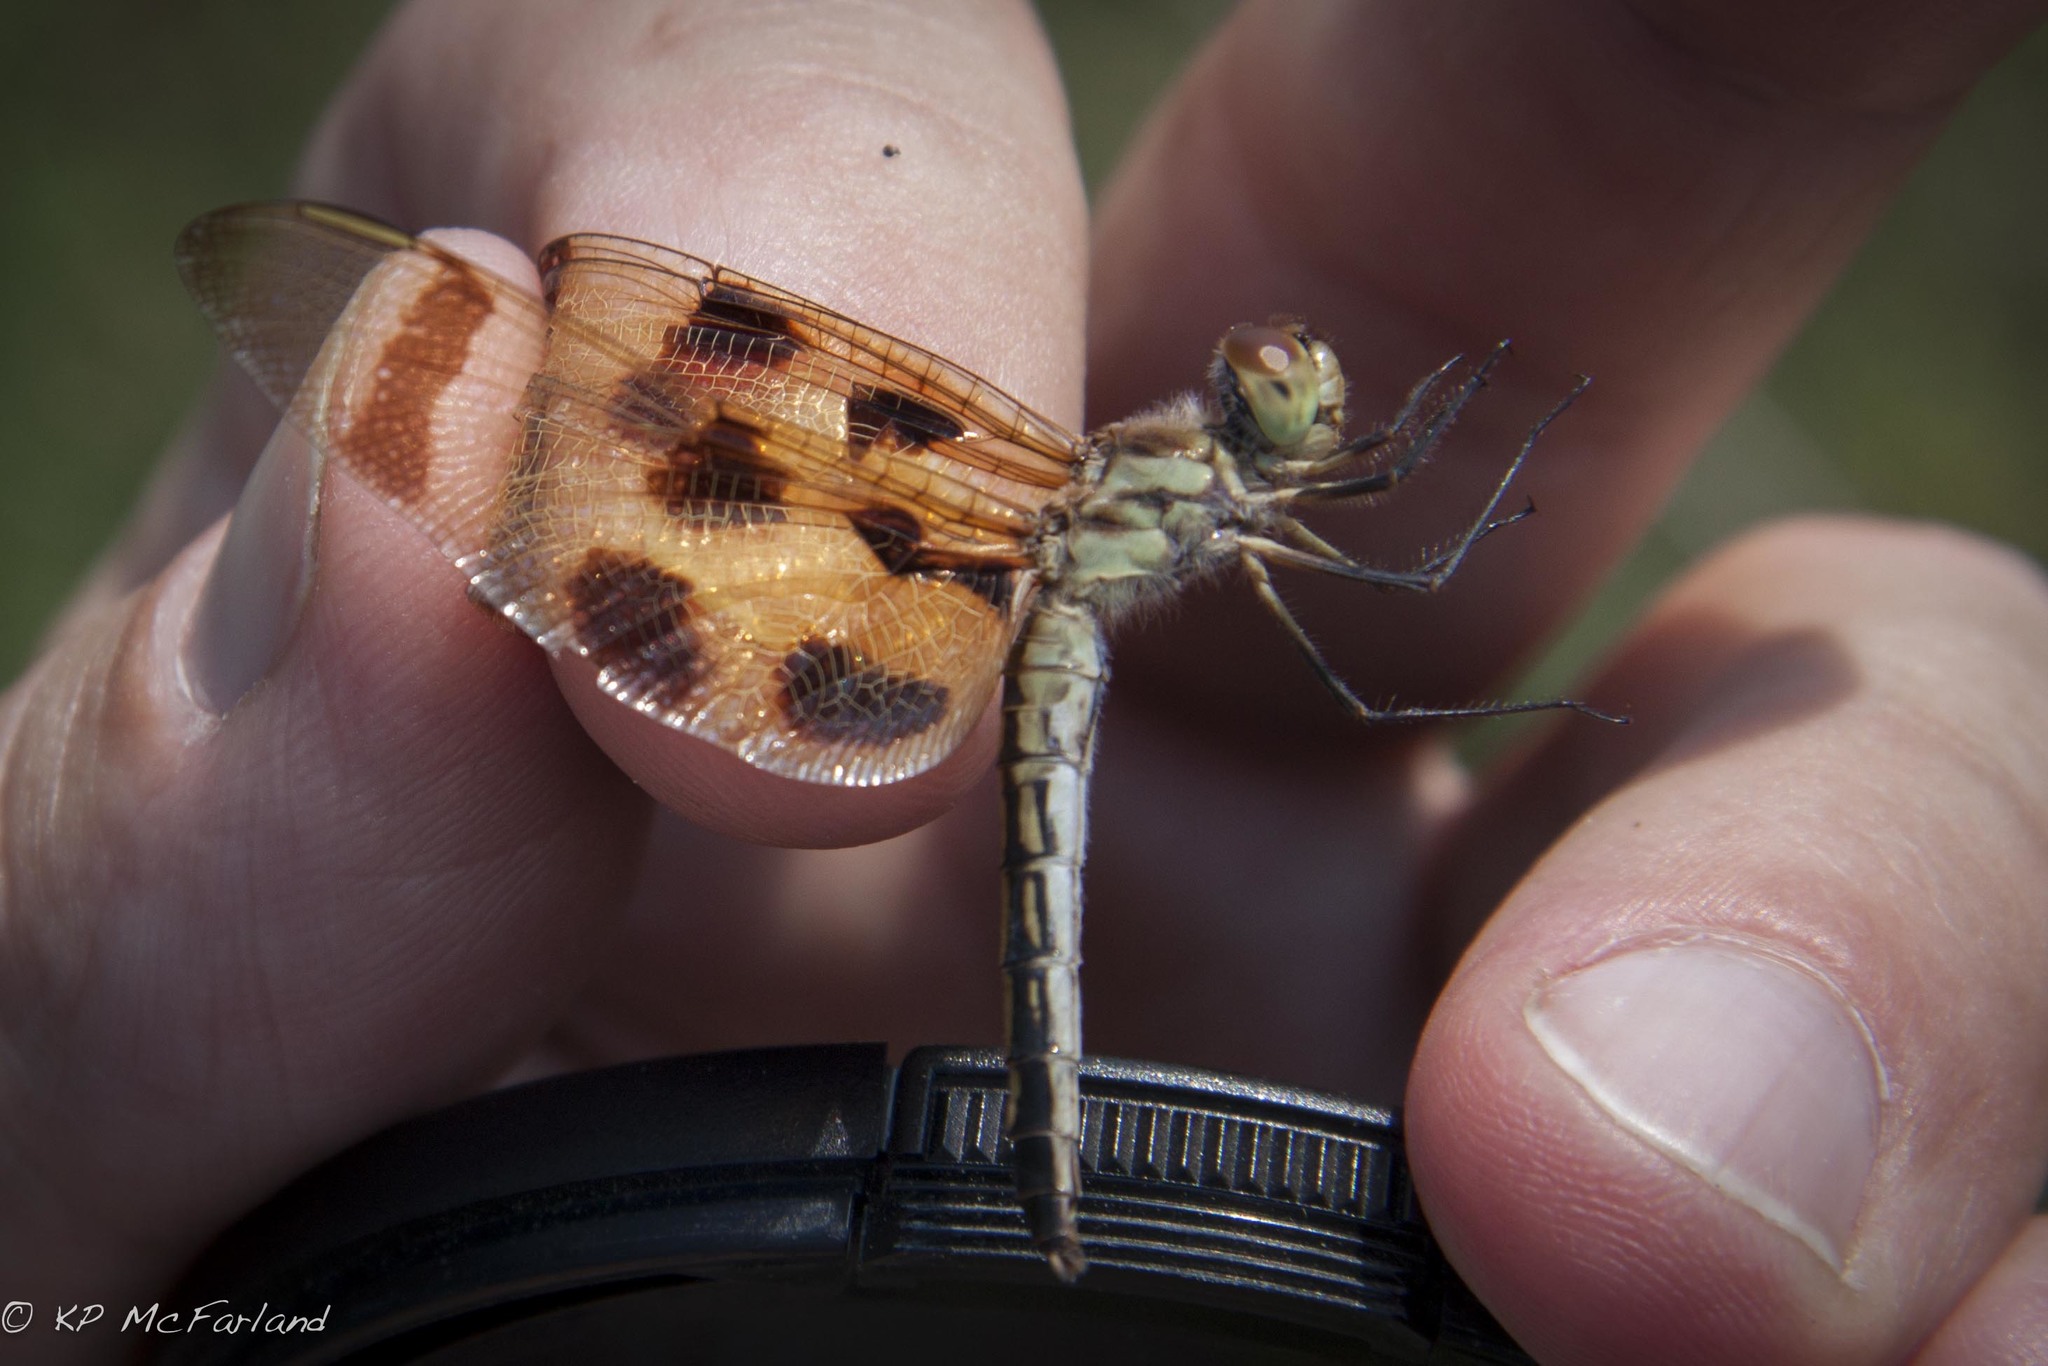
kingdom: Animalia
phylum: Arthropoda
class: Insecta
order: Odonata
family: Libellulidae
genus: Celithemis
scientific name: Celithemis eponina
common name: Halloween pennant
